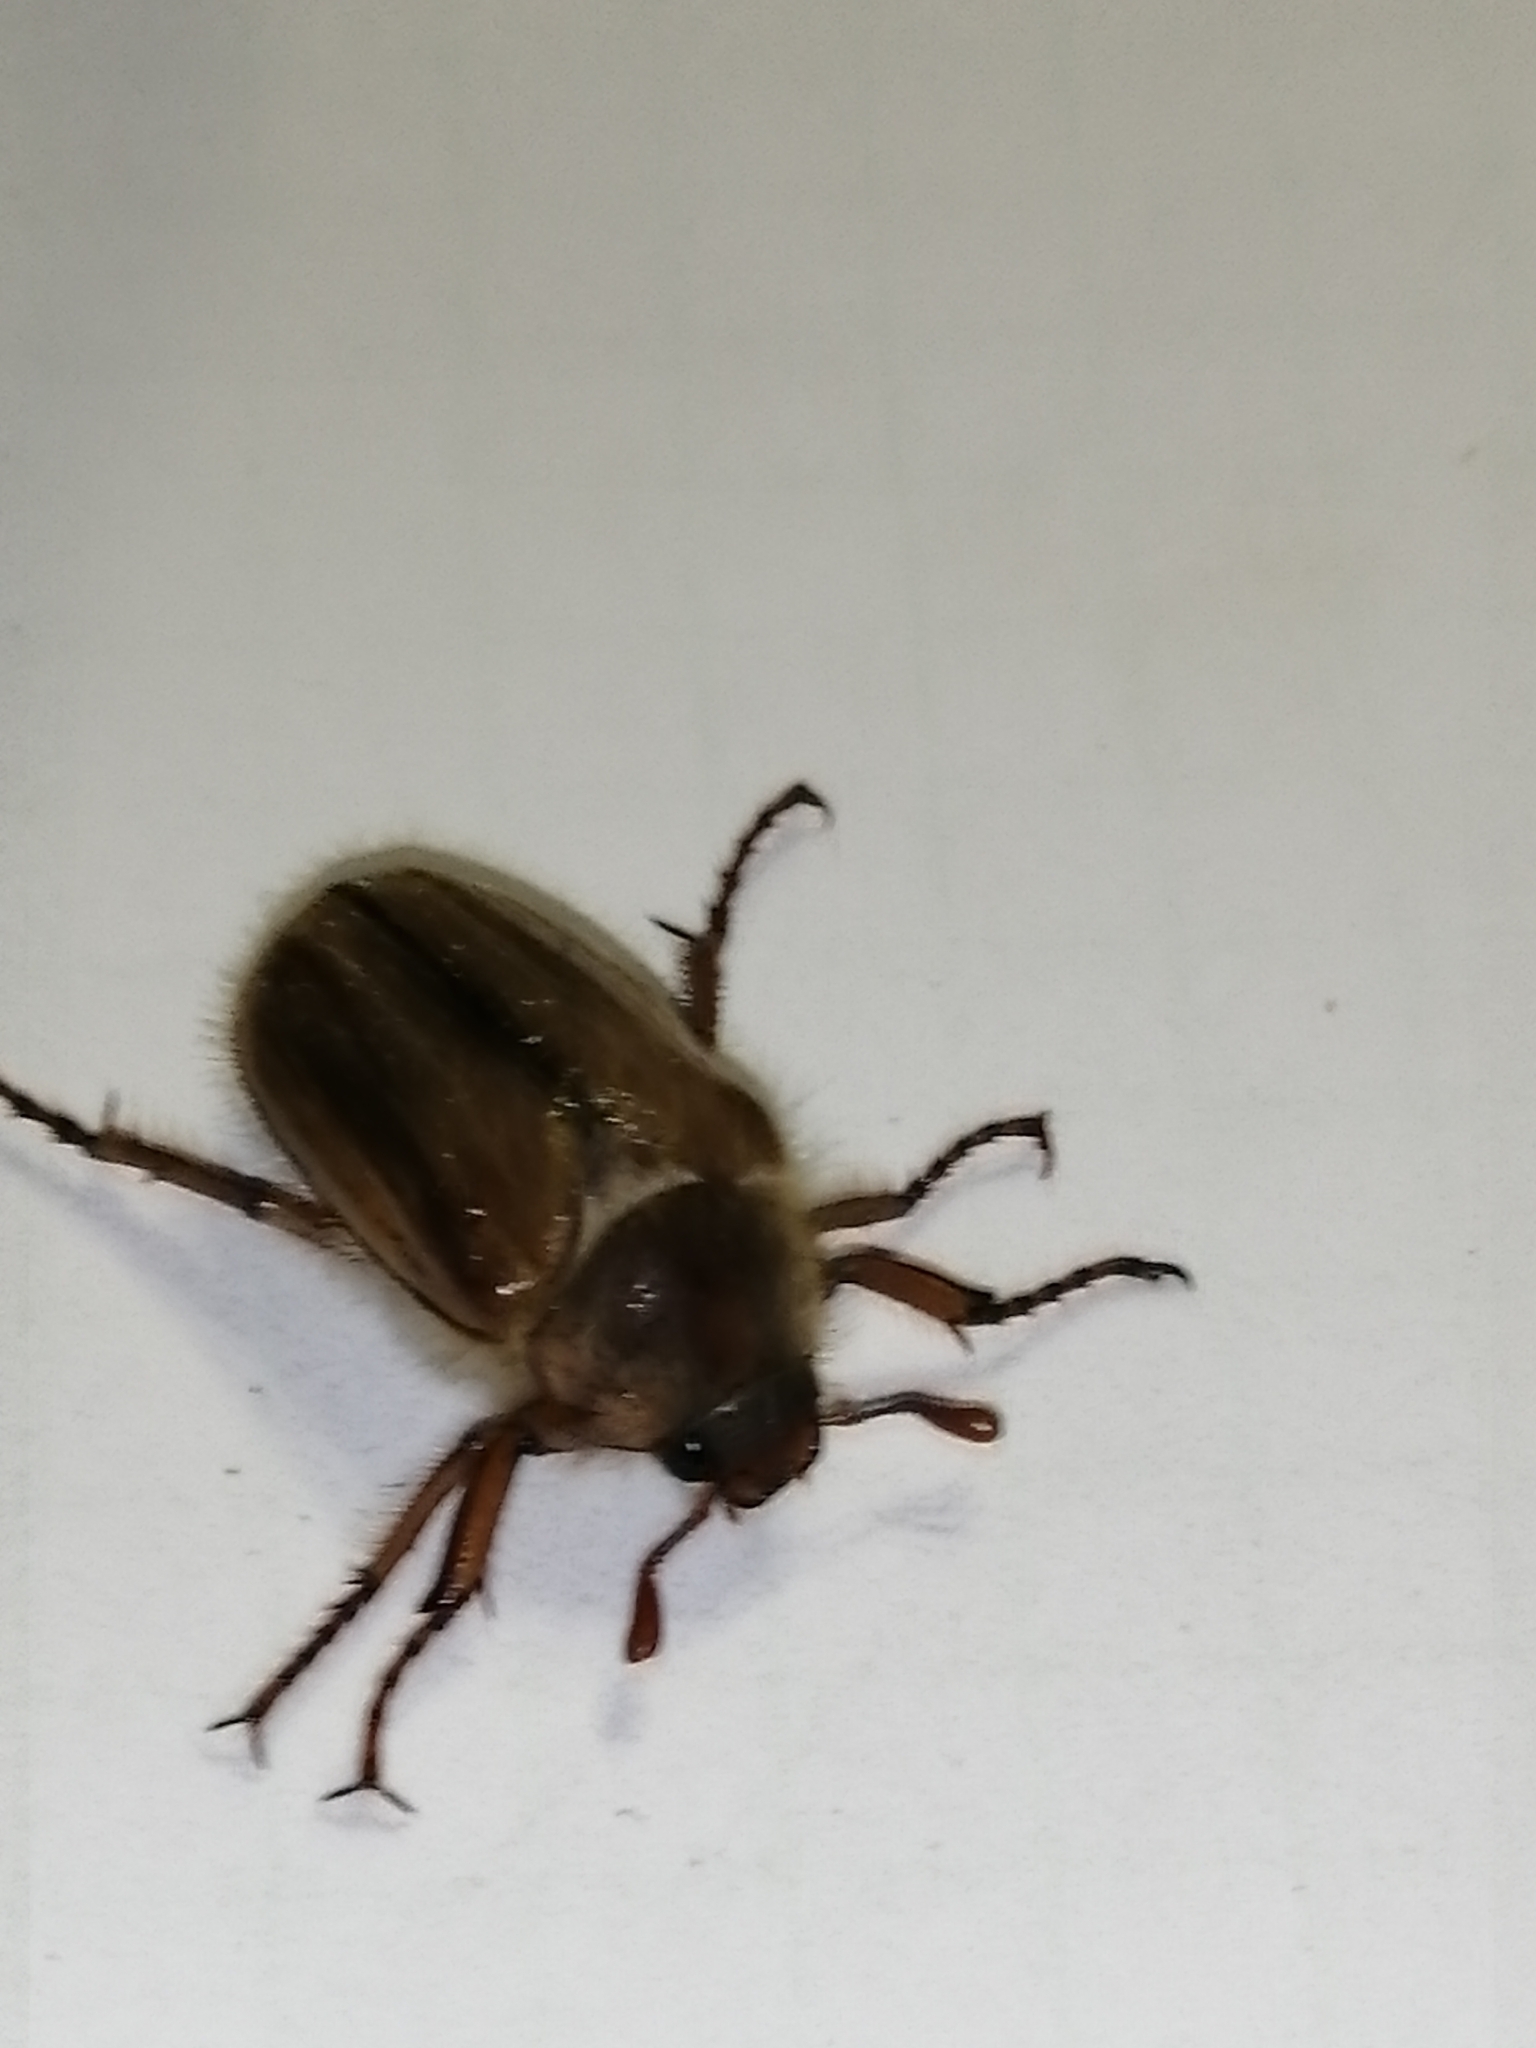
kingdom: Animalia
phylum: Arthropoda
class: Insecta
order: Coleoptera
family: Scarabaeidae
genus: Amphimallon
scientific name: Amphimallon solstitiale
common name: Summer chafer
